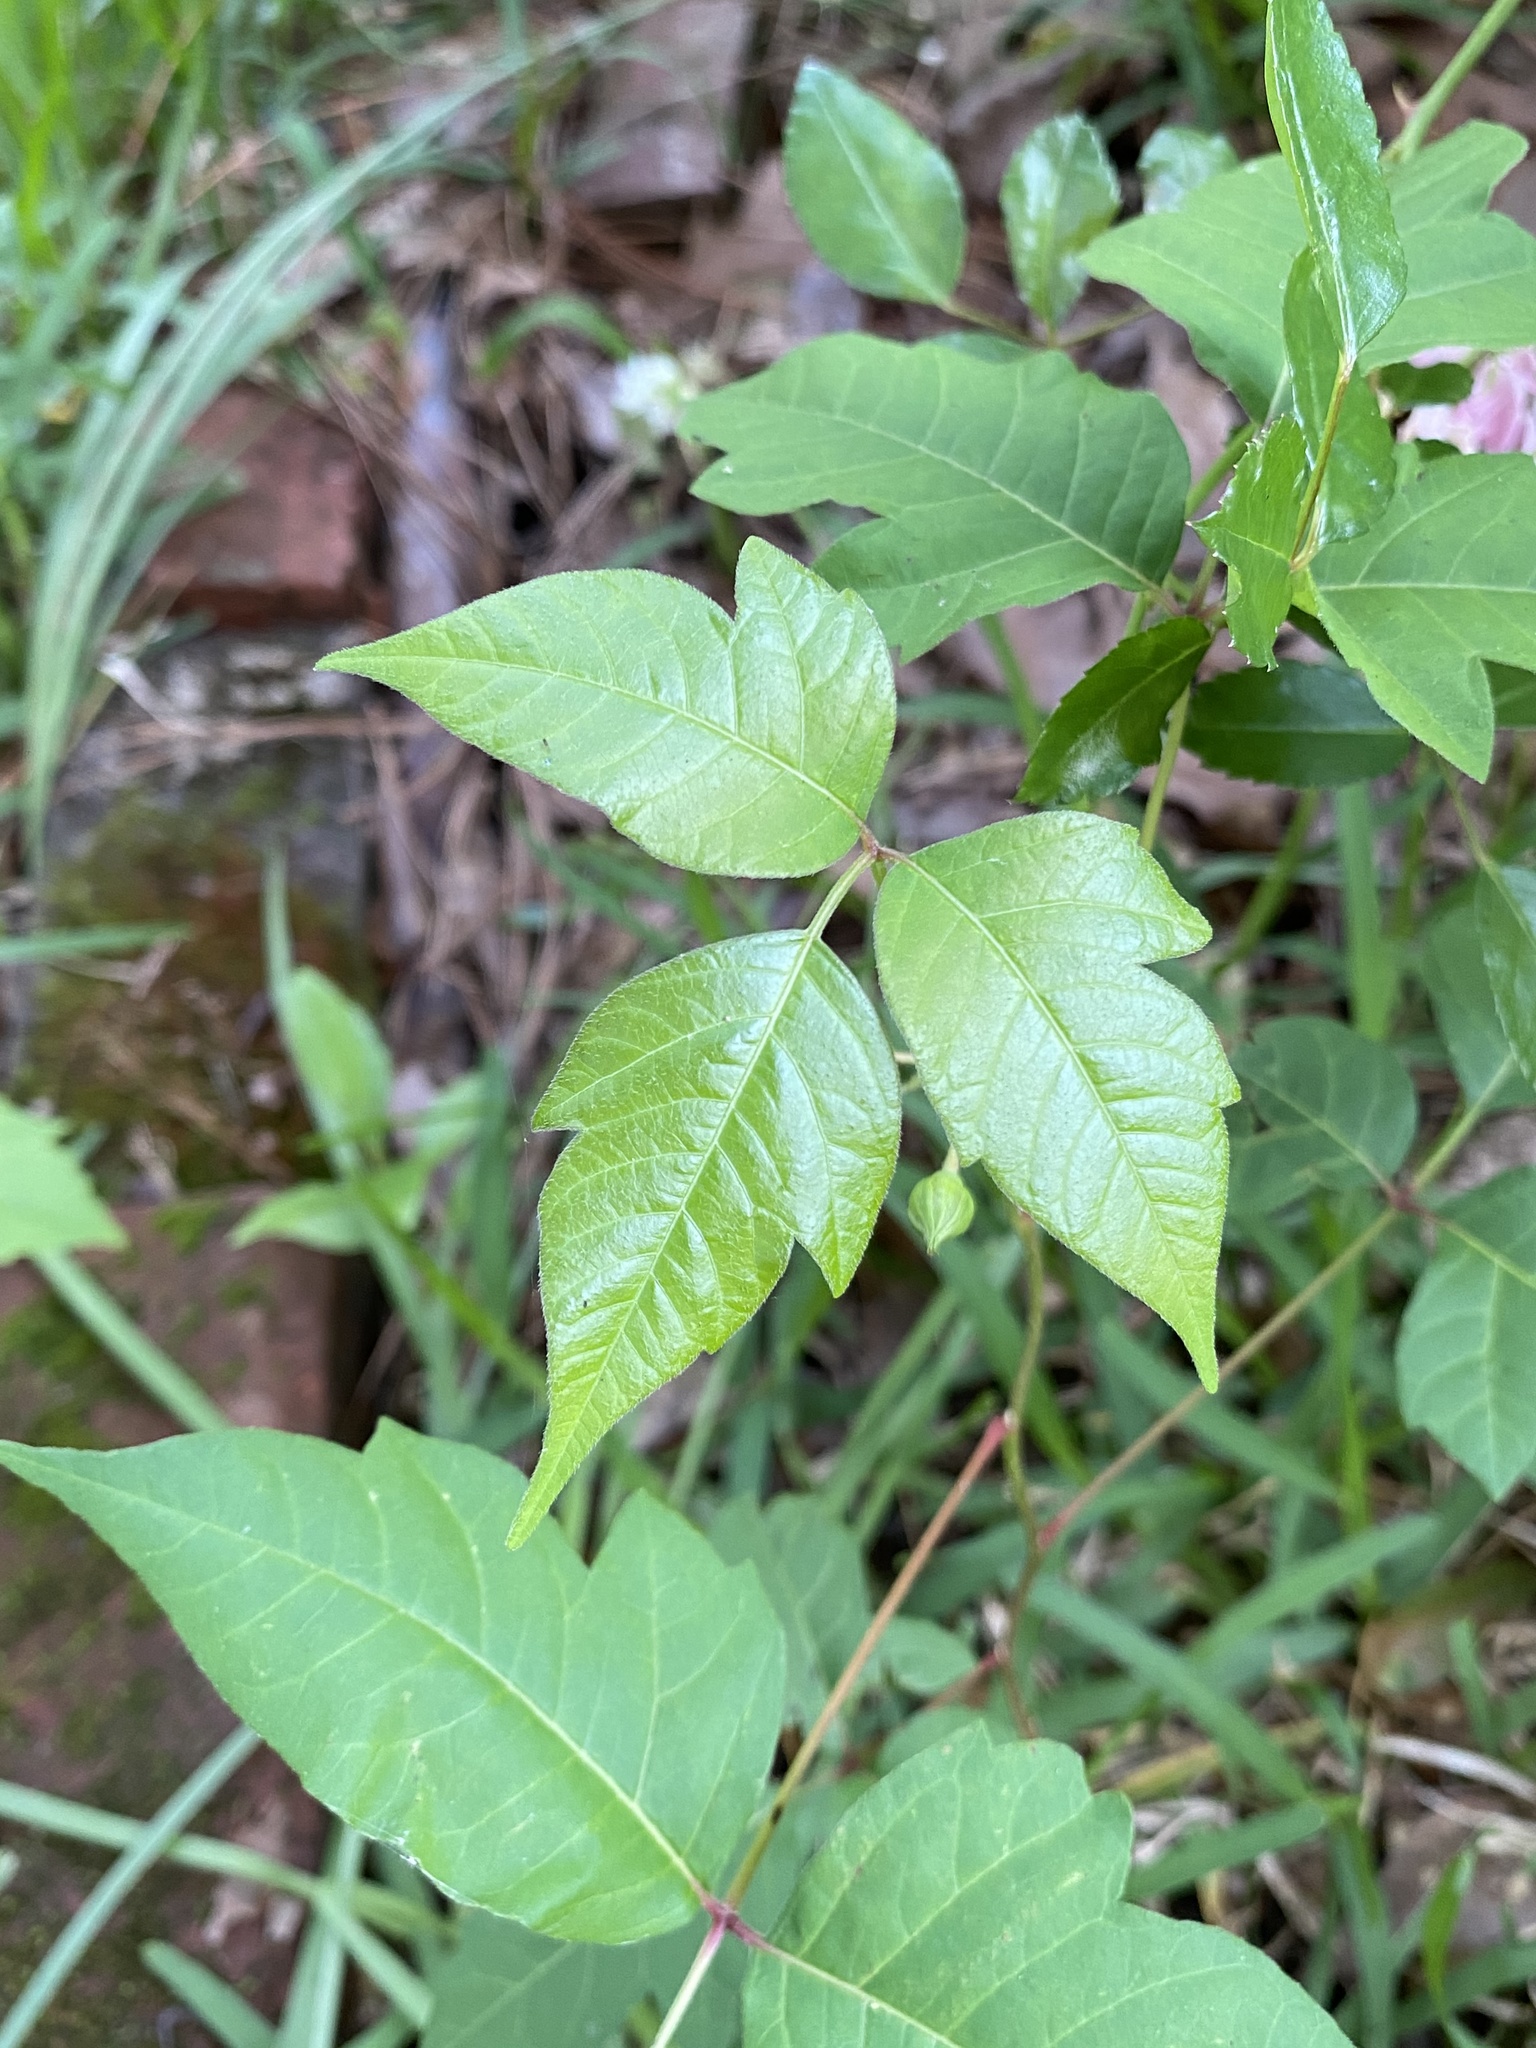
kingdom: Plantae
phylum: Tracheophyta
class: Magnoliopsida
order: Sapindales
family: Anacardiaceae
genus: Toxicodendron
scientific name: Toxicodendron radicans
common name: Poison ivy
